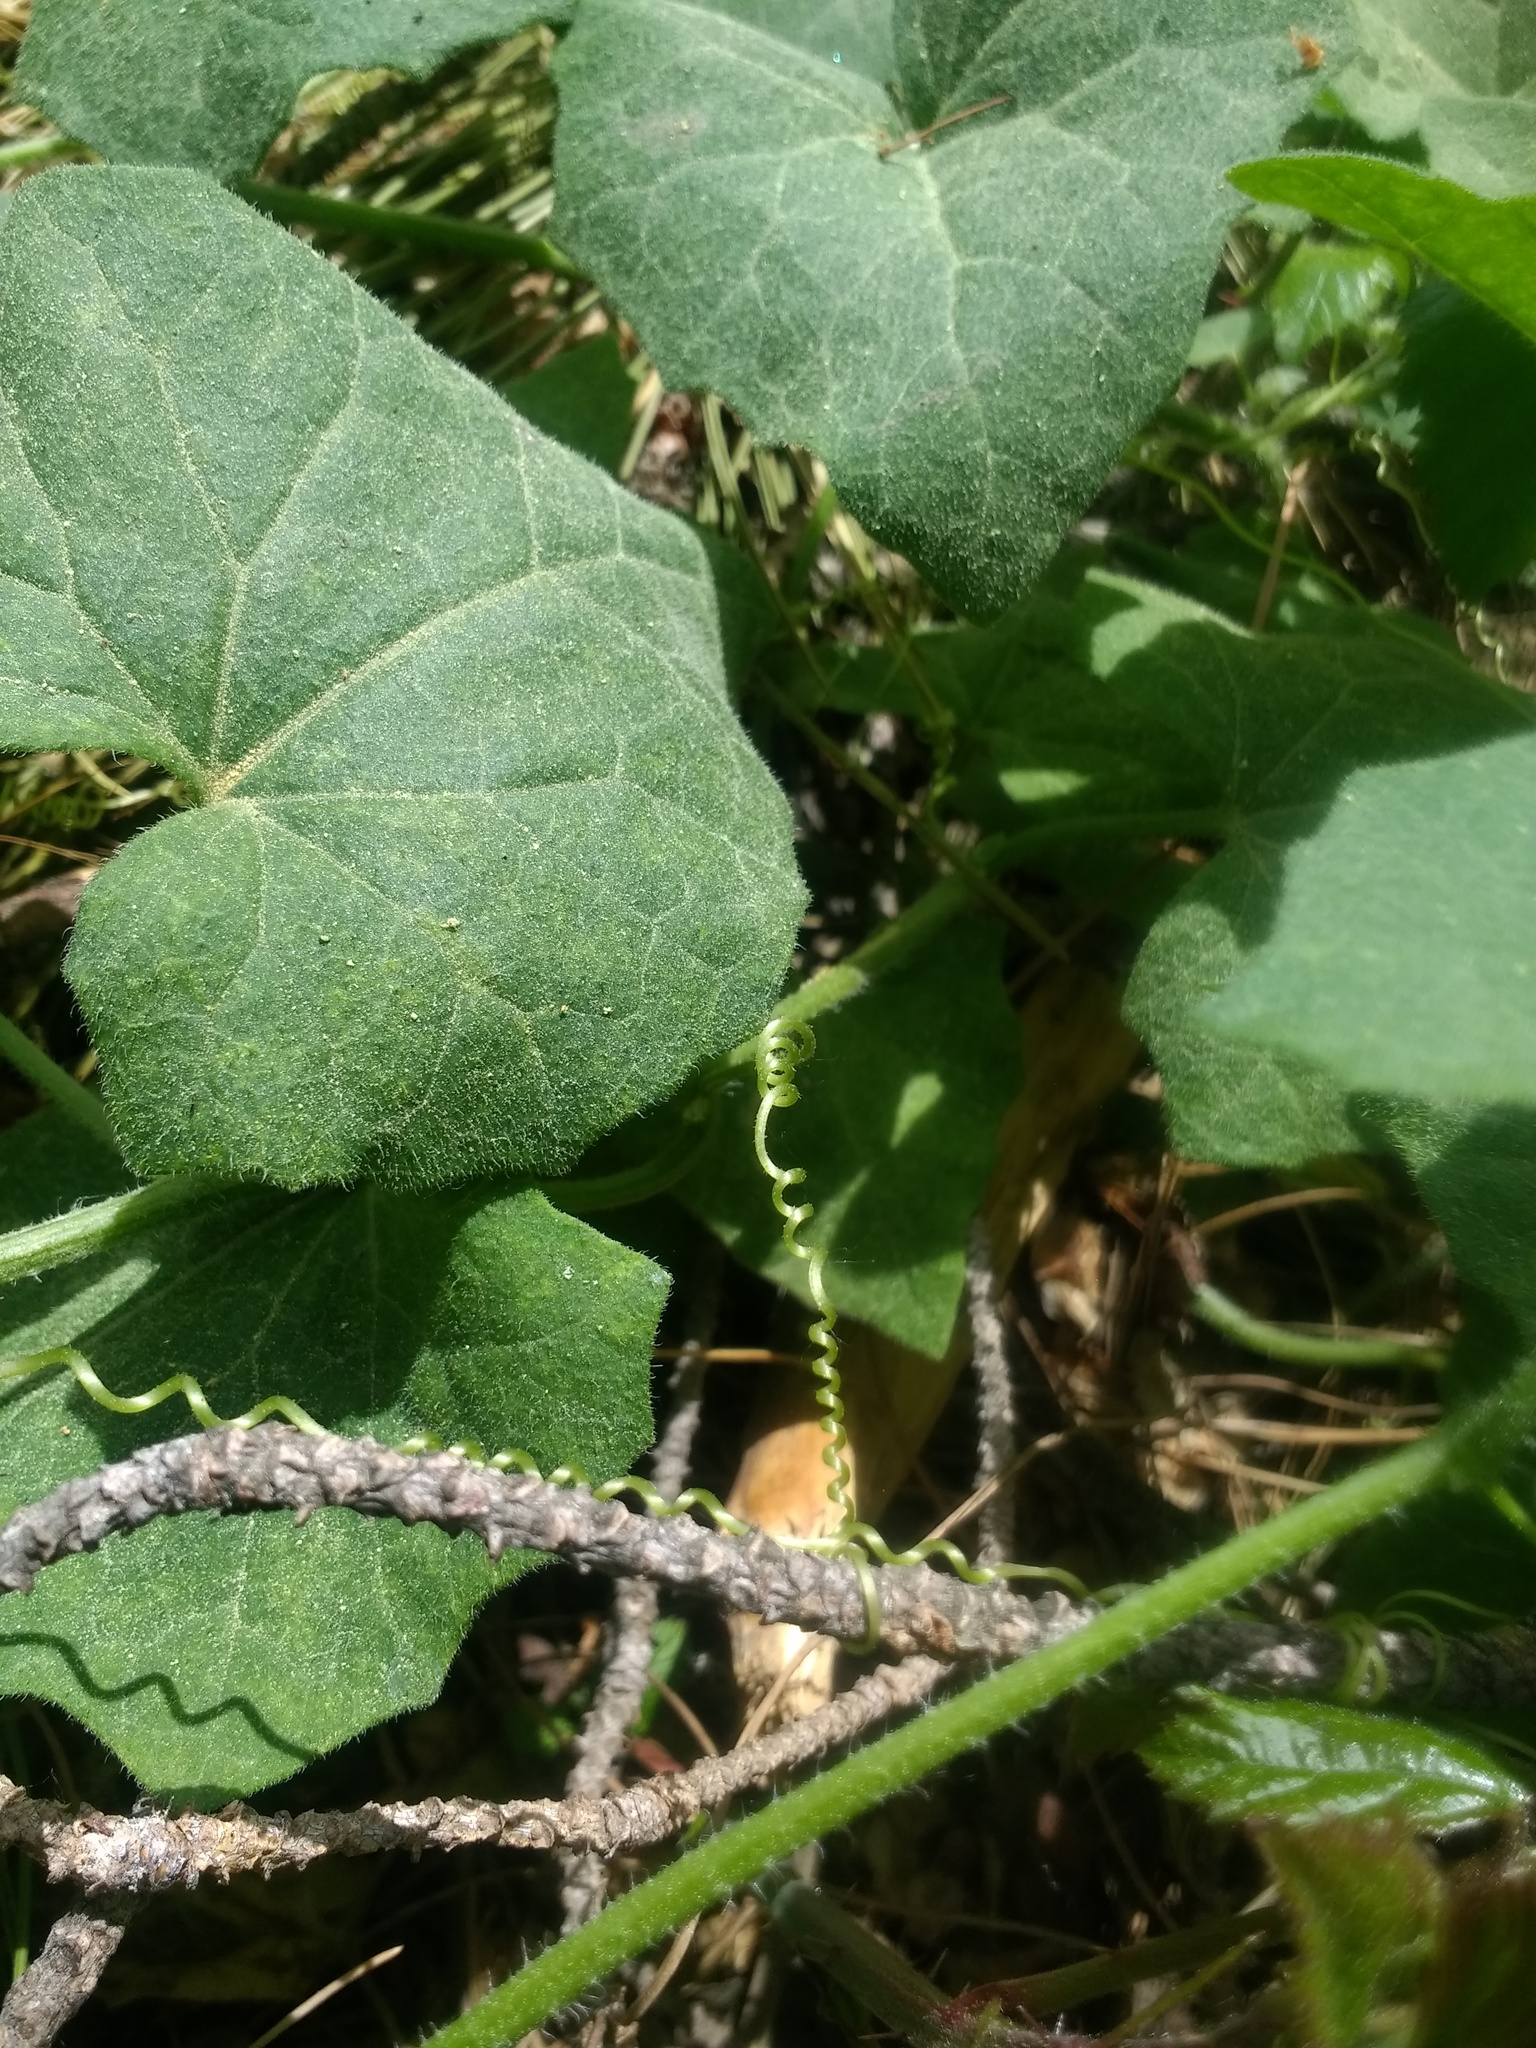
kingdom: Plantae
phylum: Tracheophyta
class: Magnoliopsida
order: Cucurbitales
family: Cucurbitaceae
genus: Bryonia
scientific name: Bryonia dioica
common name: White bryony
